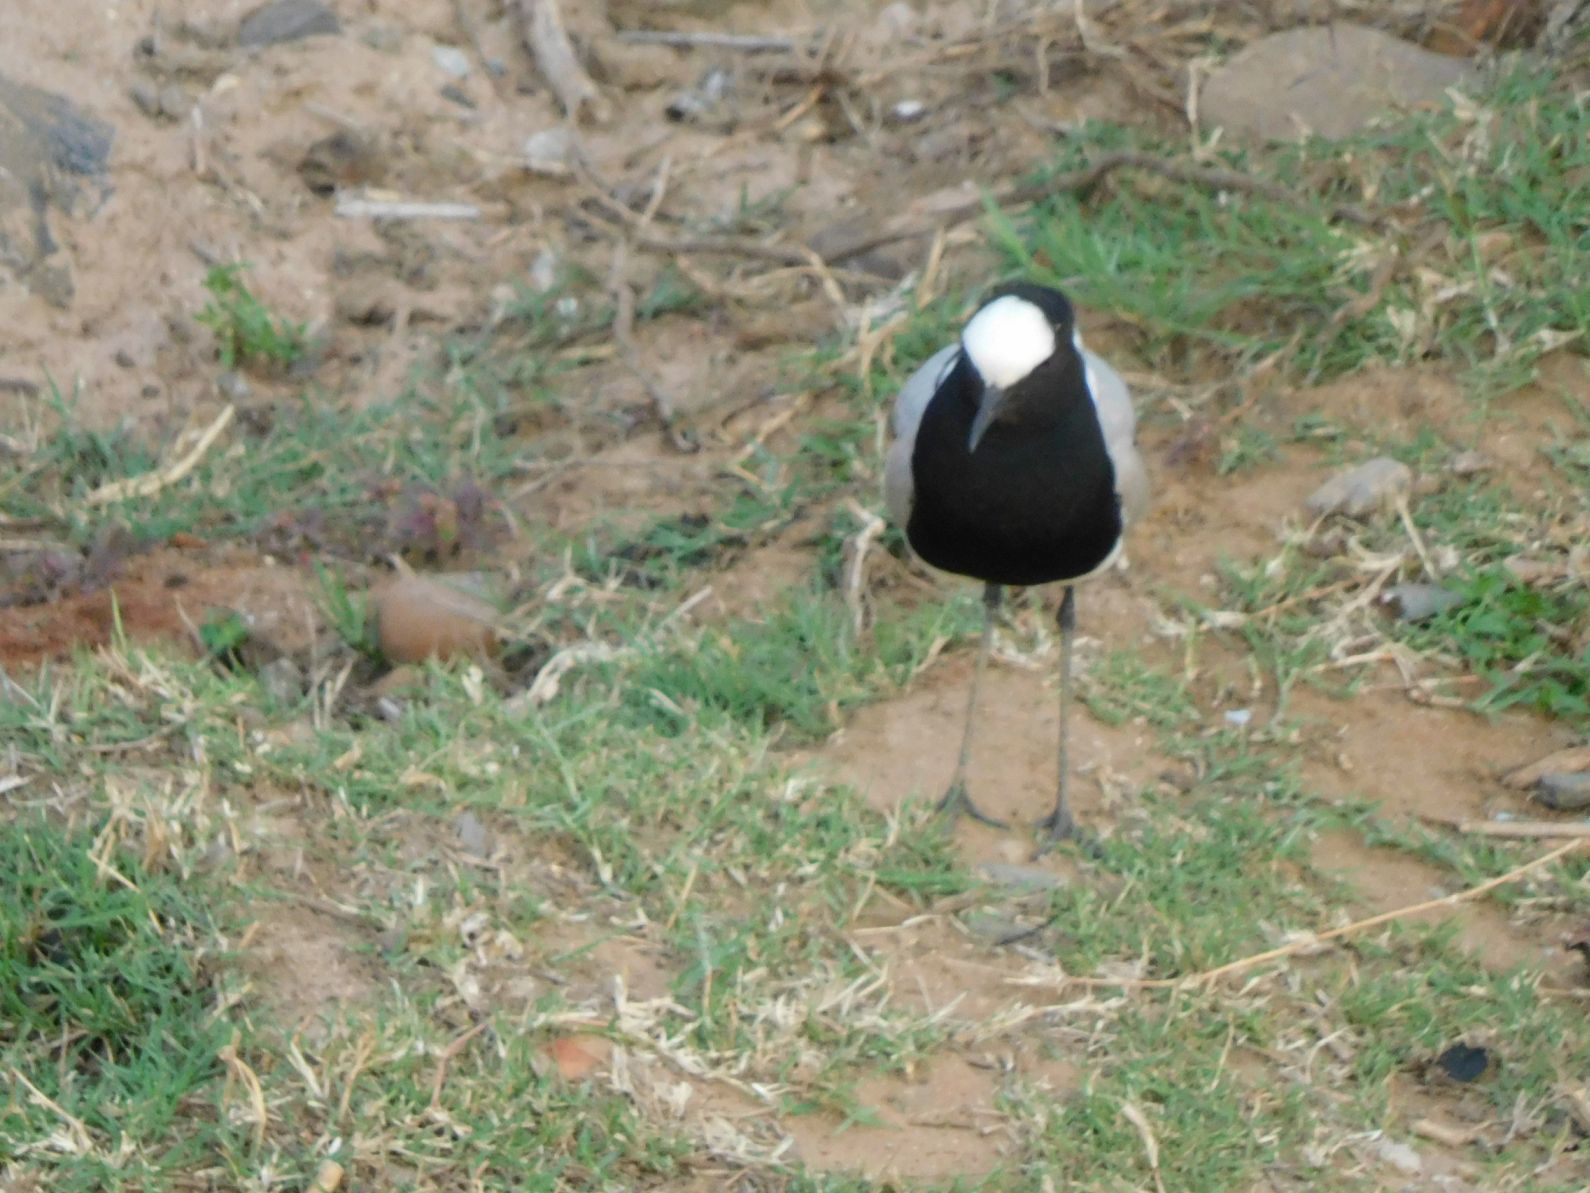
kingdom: Animalia
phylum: Chordata
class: Aves
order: Charadriiformes
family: Charadriidae
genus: Vanellus
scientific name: Vanellus armatus
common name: Blacksmith lapwing
